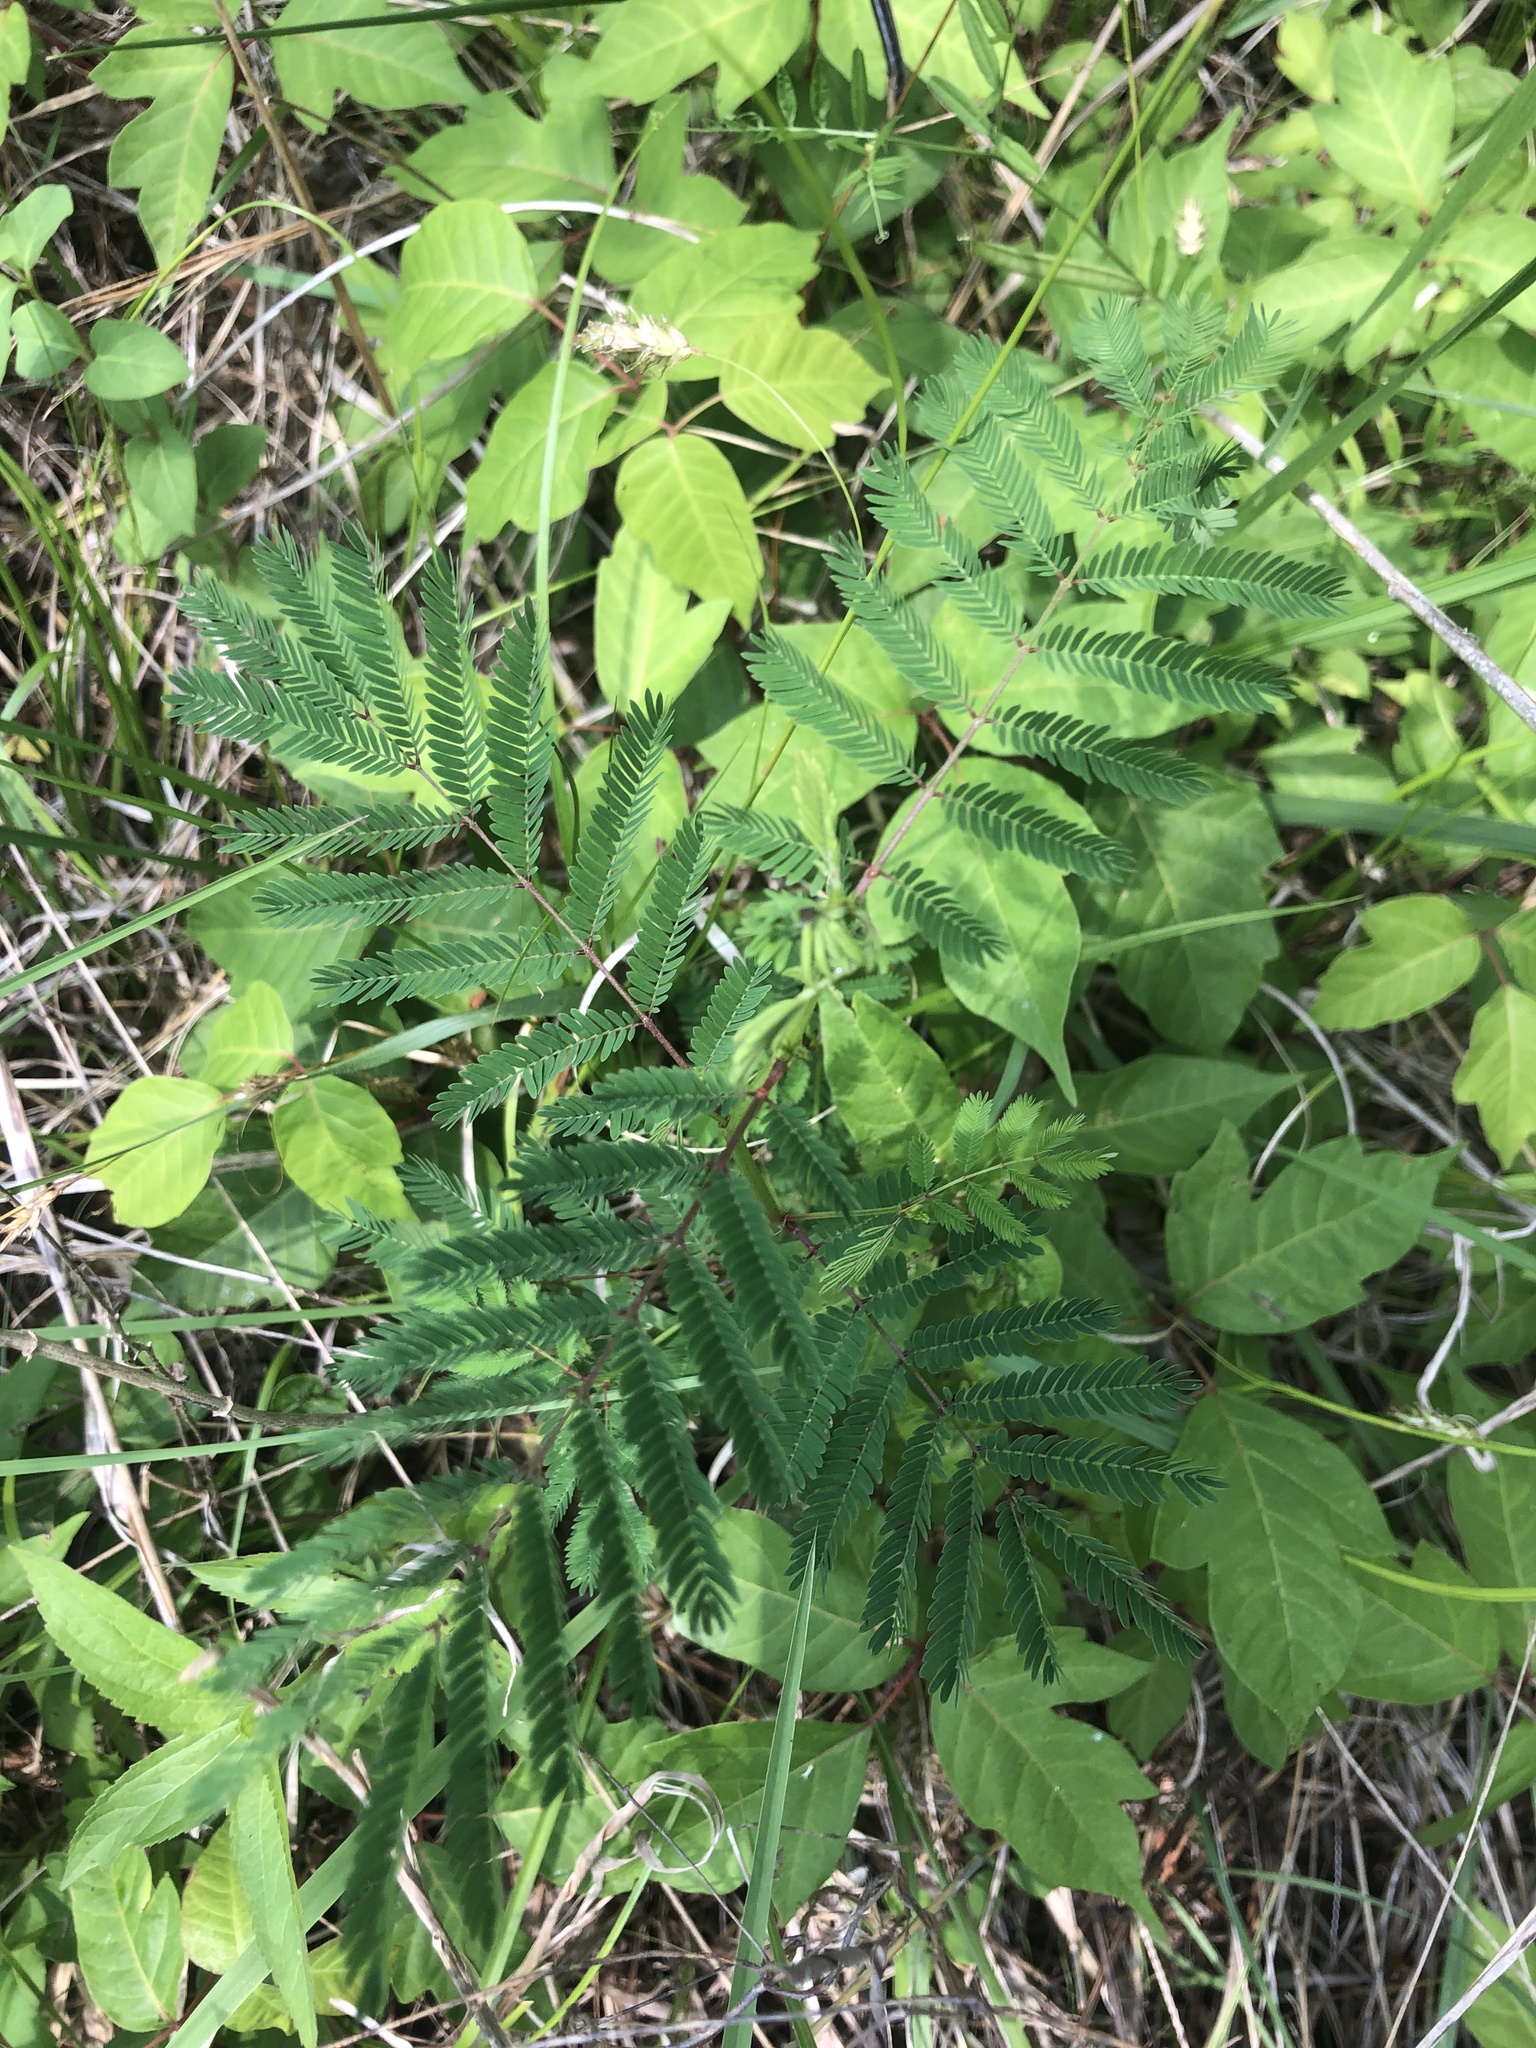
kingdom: Plantae
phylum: Tracheophyta
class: Magnoliopsida
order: Fabales
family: Fabaceae
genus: Desmanthus
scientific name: Desmanthus illinoensis
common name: Illinois bundle-flower
